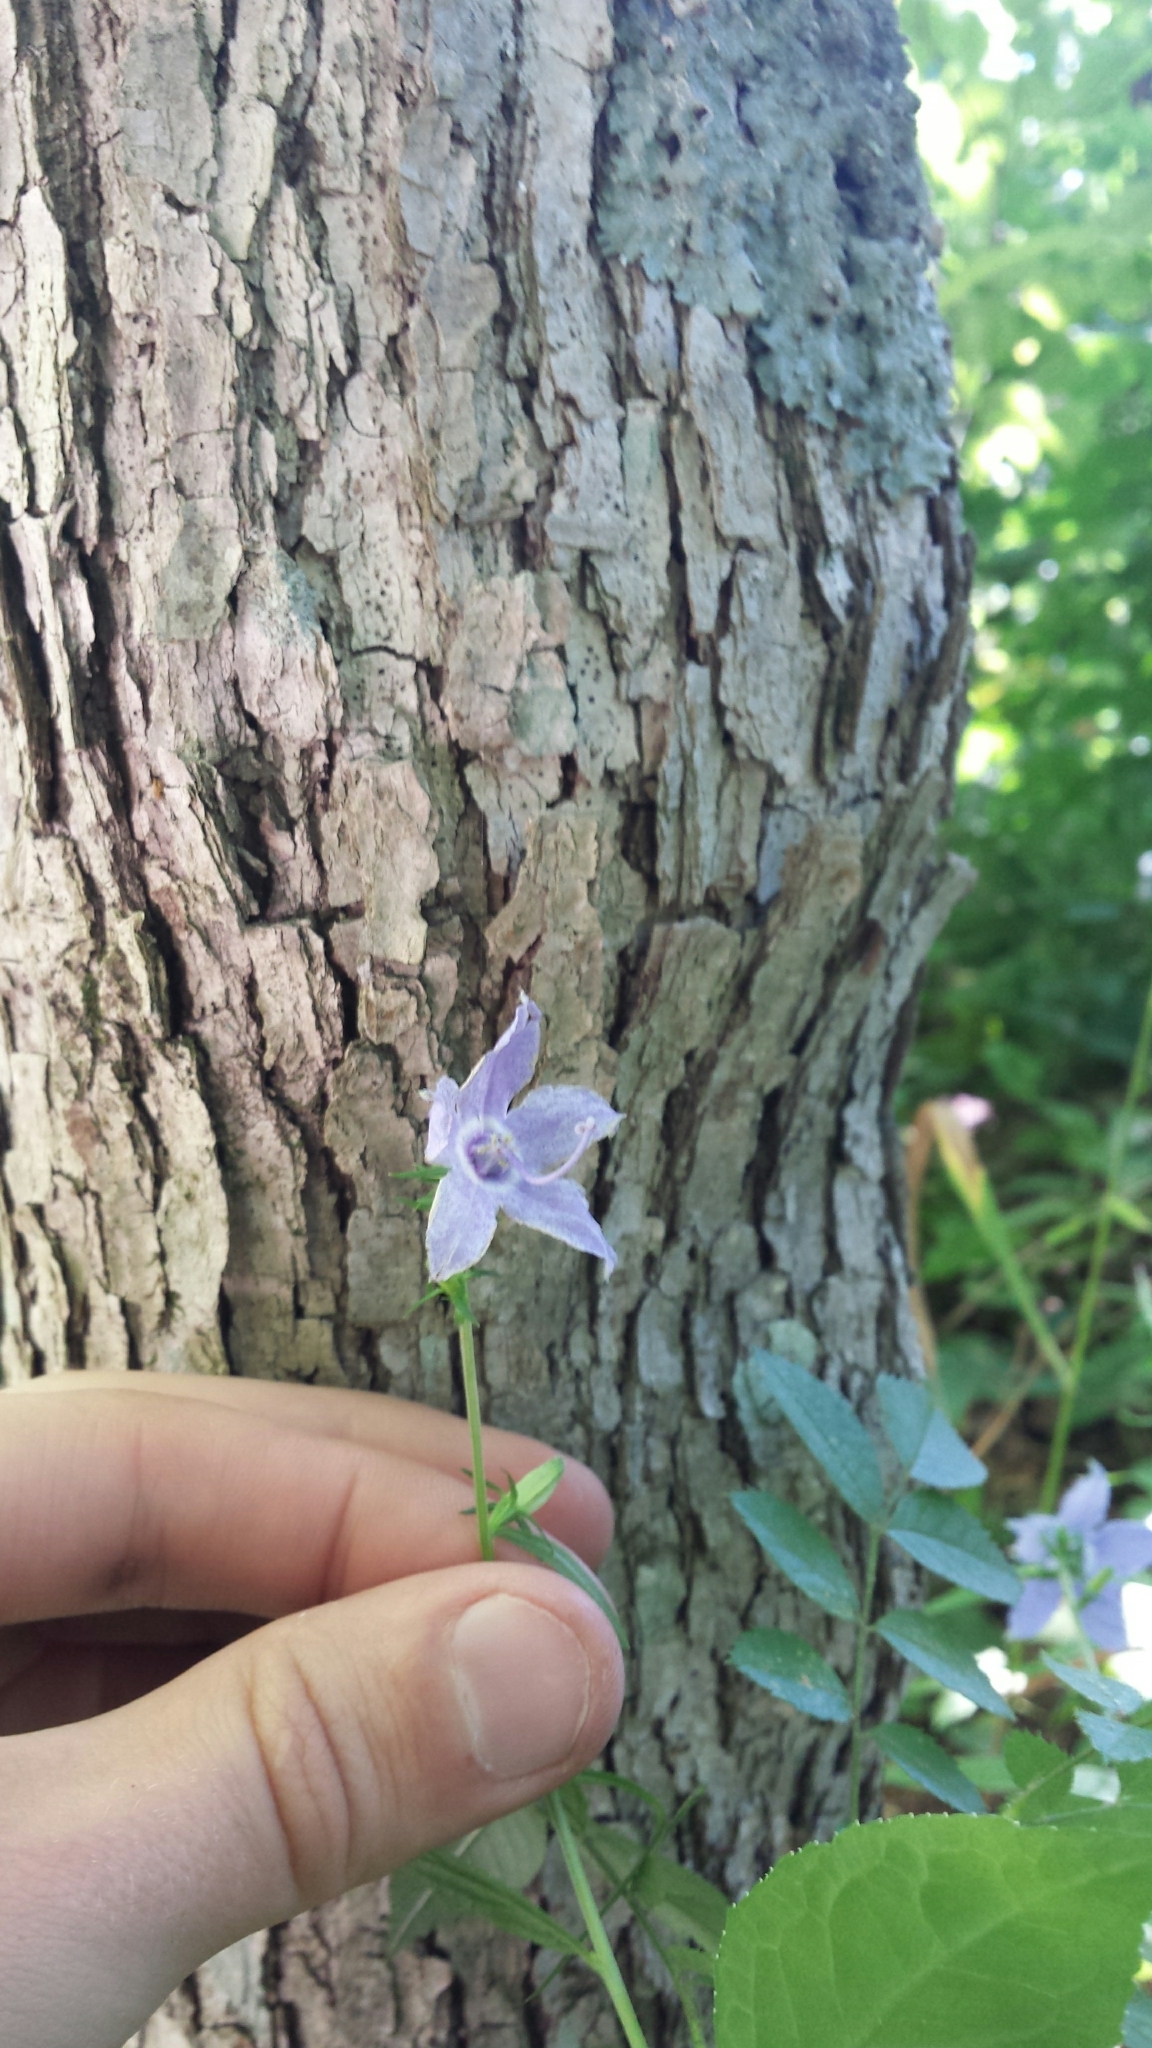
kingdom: Plantae
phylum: Tracheophyta
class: Magnoliopsida
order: Asterales
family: Campanulaceae
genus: Campanulastrum
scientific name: Campanulastrum americanum
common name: American bellflower
